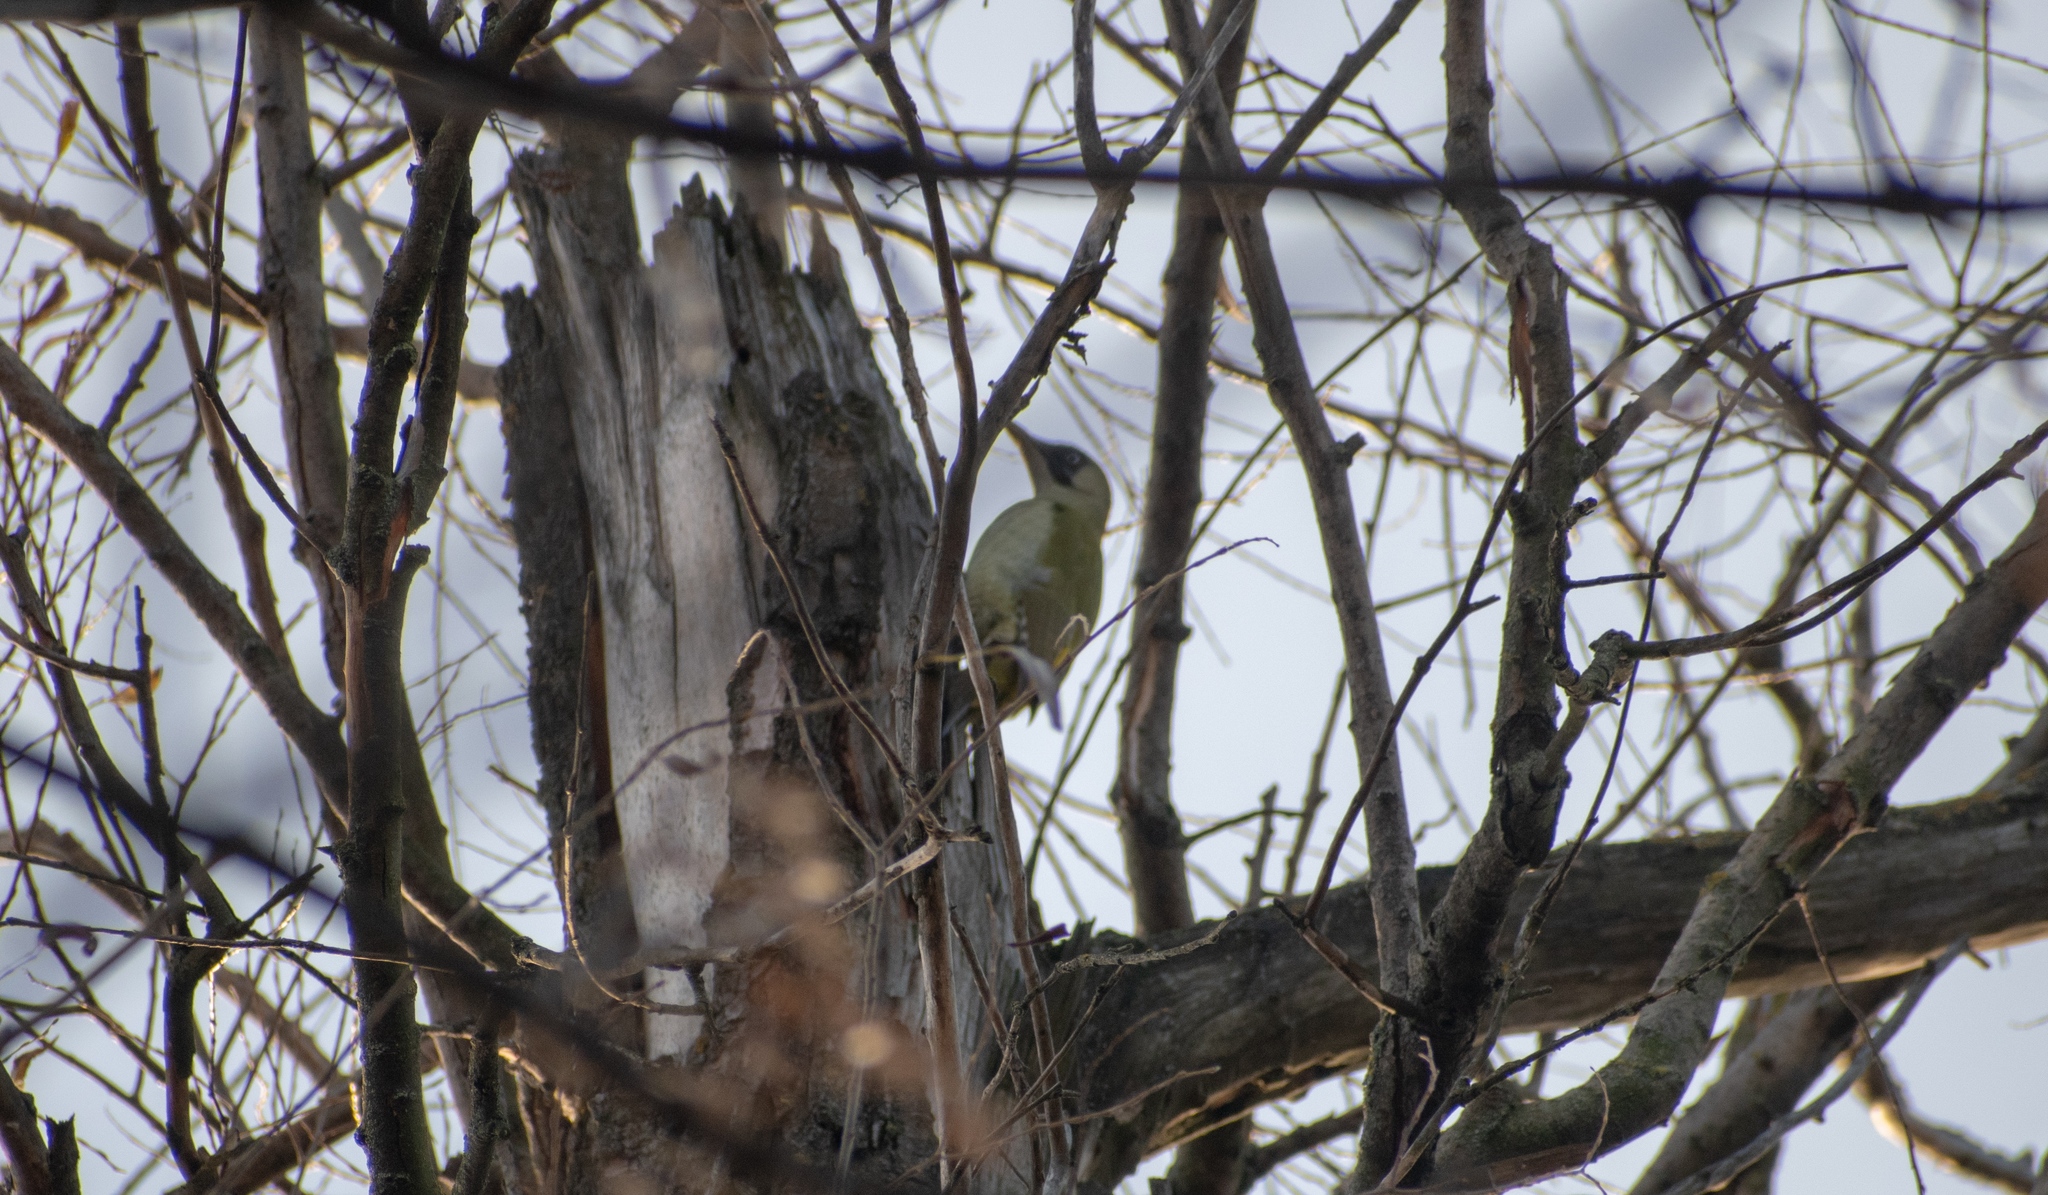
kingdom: Animalia
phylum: Chordata
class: Aves
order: Piciformes
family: Picidae
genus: Picus
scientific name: Picus viridis
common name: European green woodpecker
